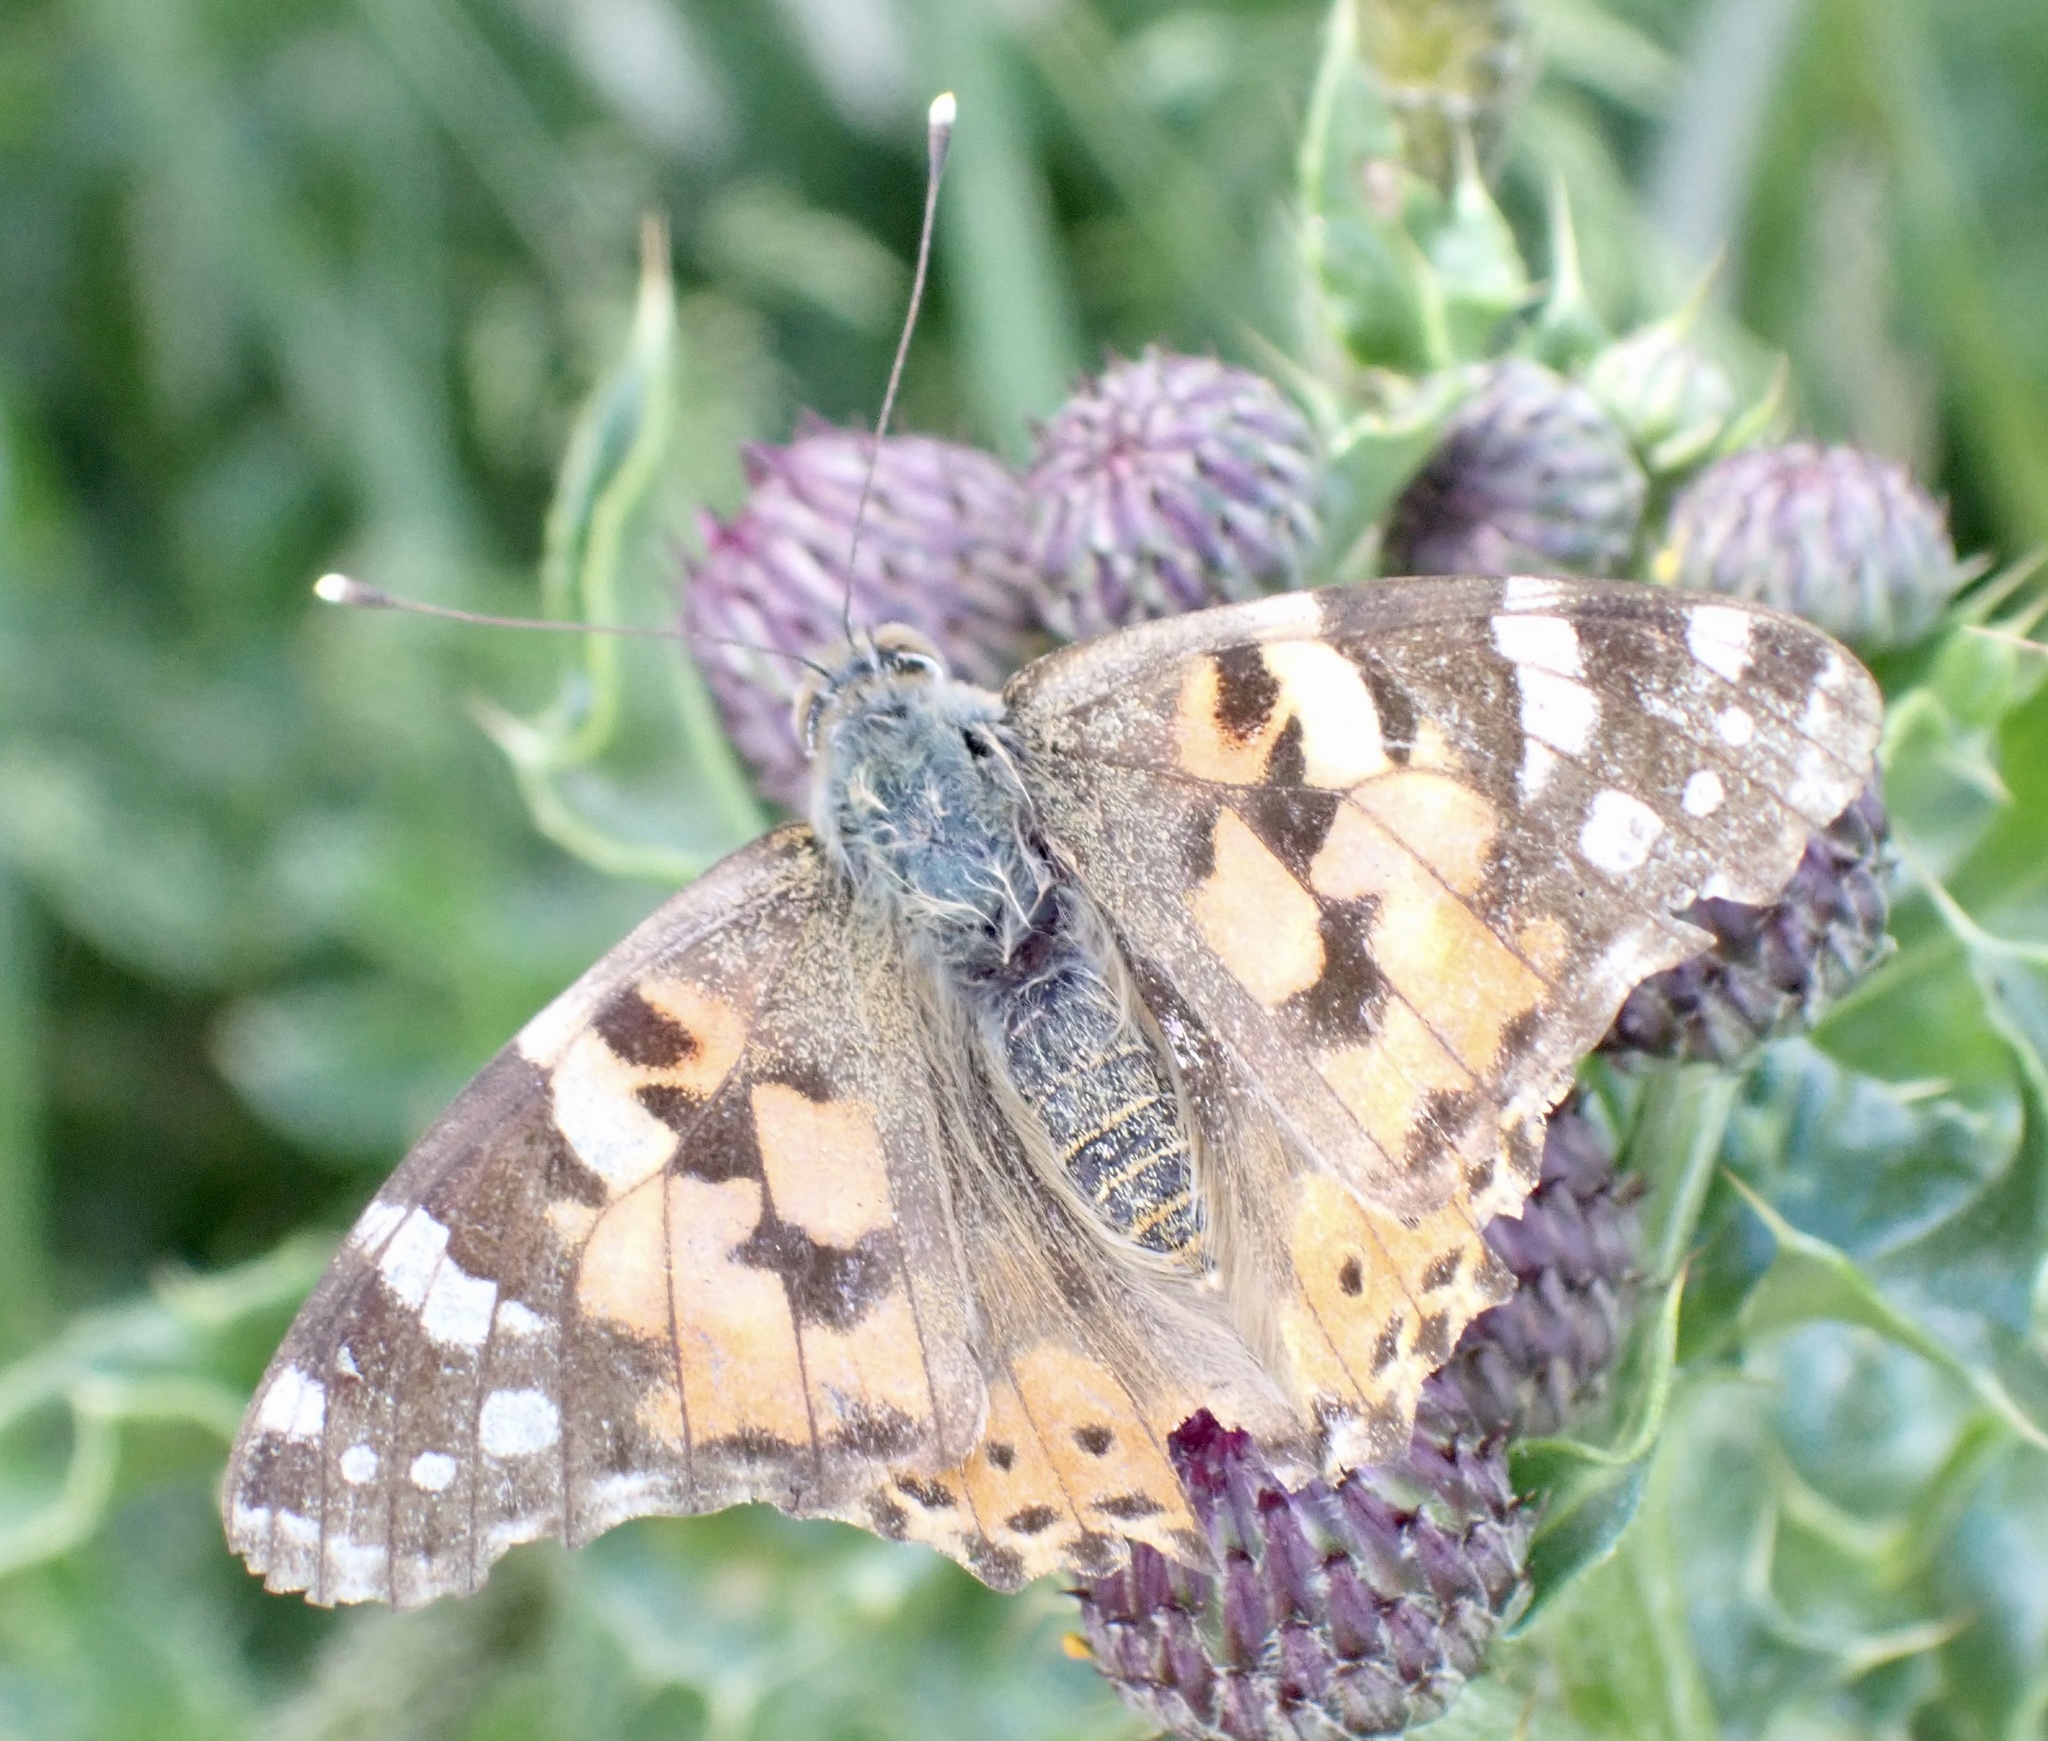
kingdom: Animalia
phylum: Arthropoda
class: Insecta
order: Lepidoptera
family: Nymphalidae
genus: Vanessa
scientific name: Vanessa cardui
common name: Painted lady
